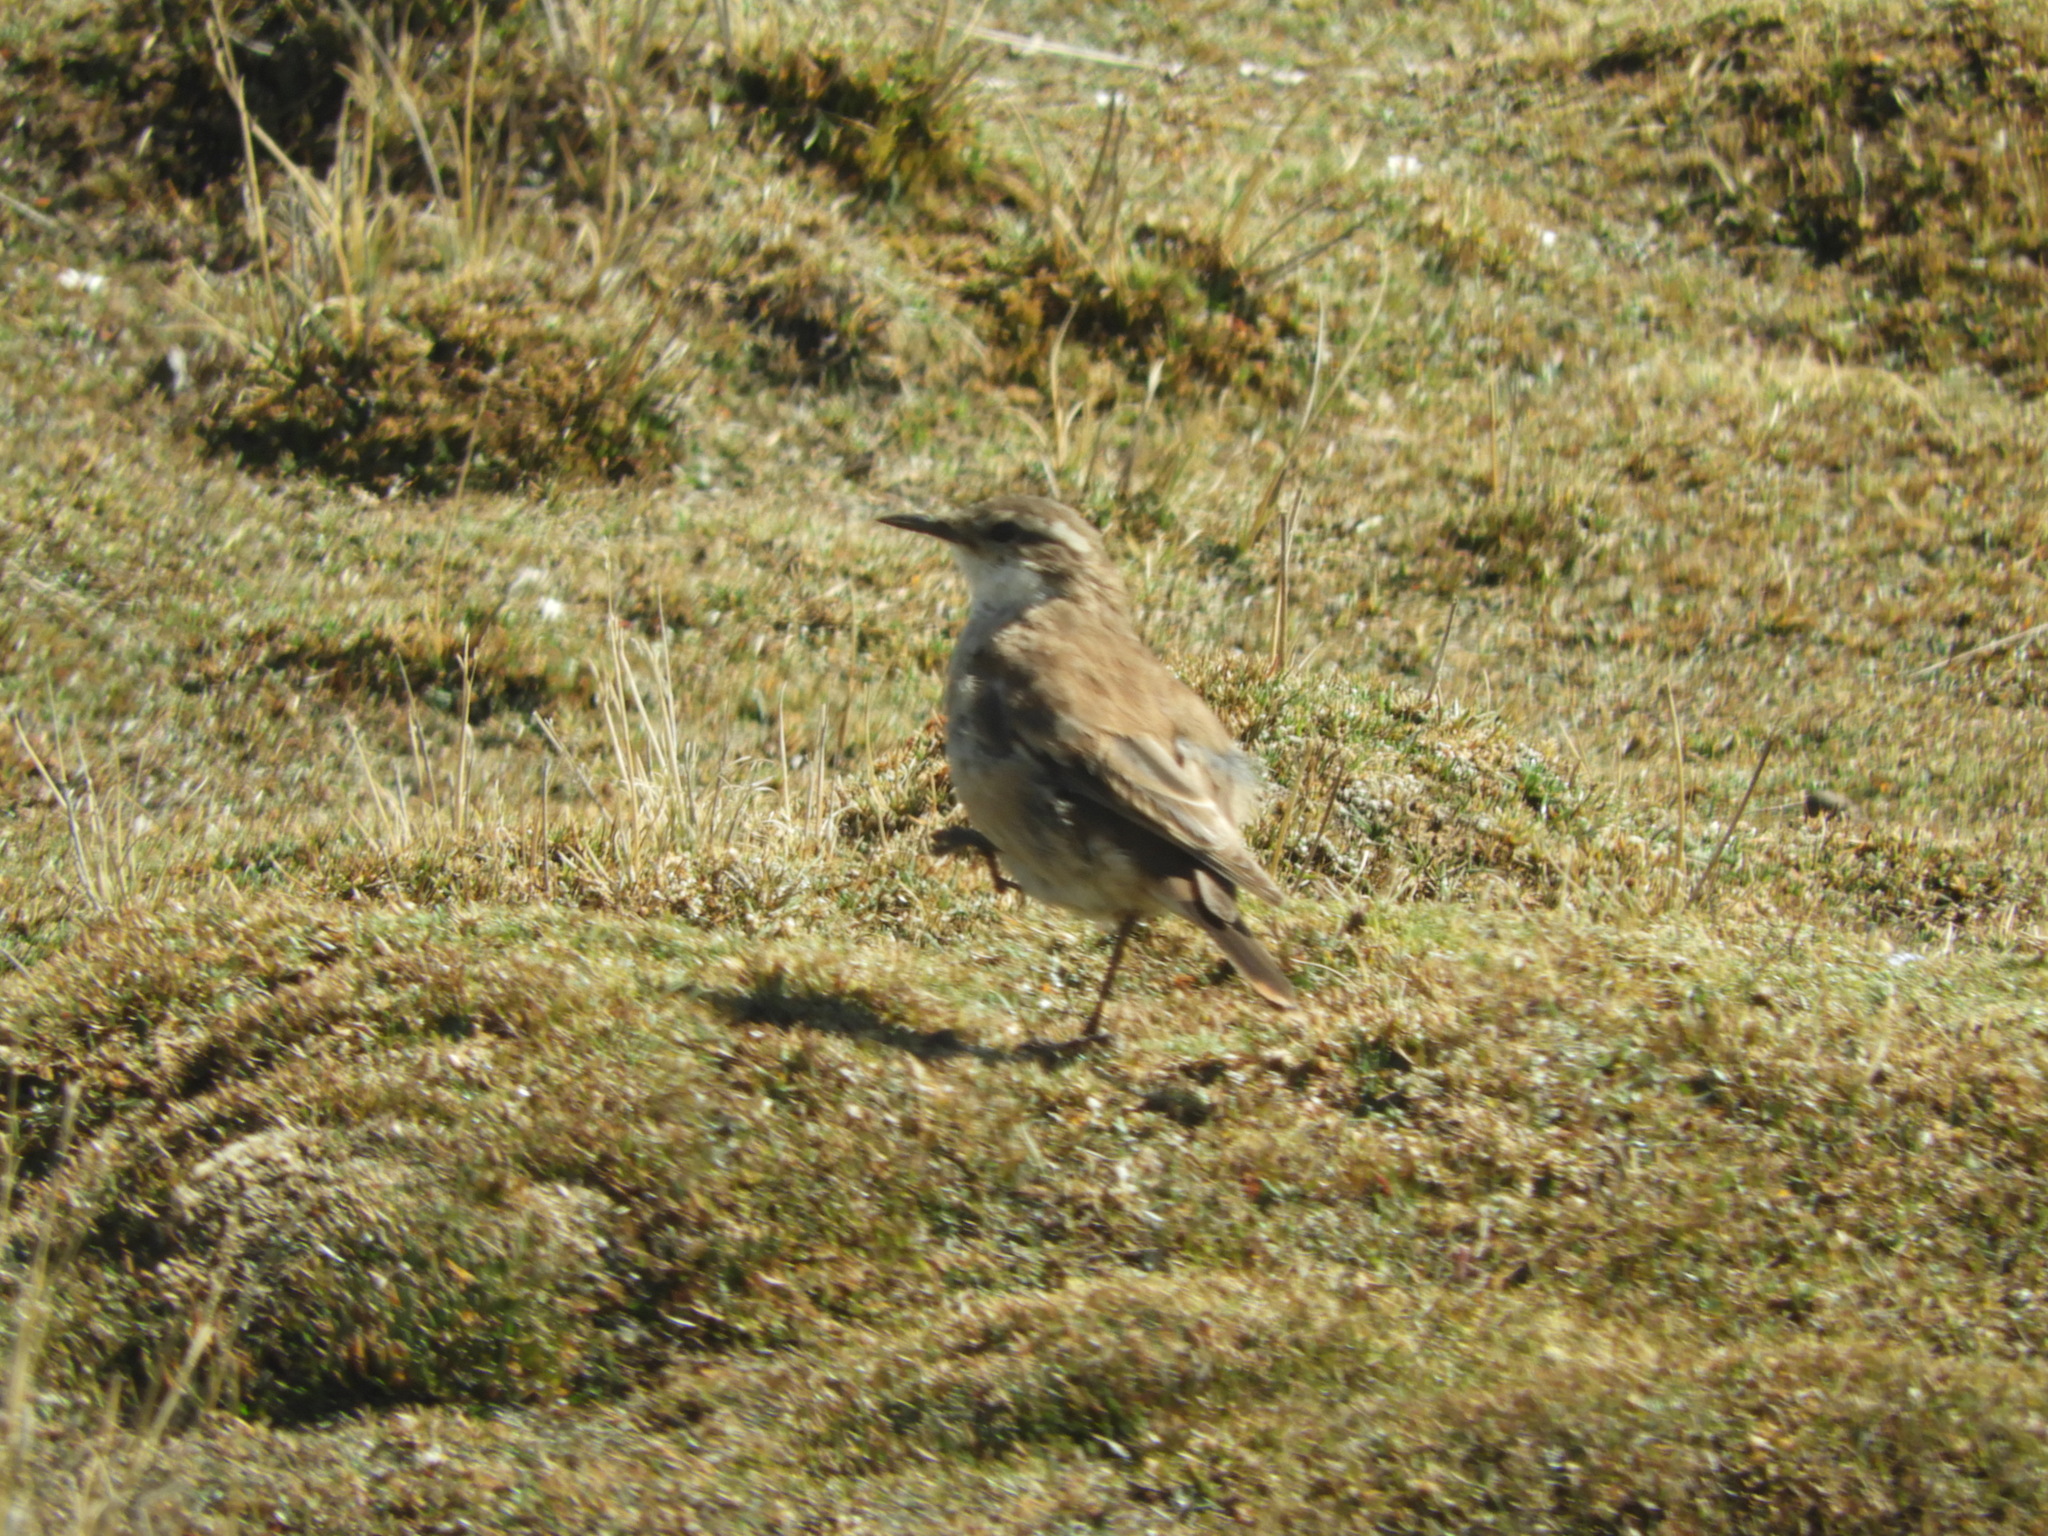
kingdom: Animalia
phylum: Chordata
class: Aves
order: Passeriformes
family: Furnariidae
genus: Cinclodes
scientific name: Cinclodes fuscus
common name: Buff-winged cinclodes
